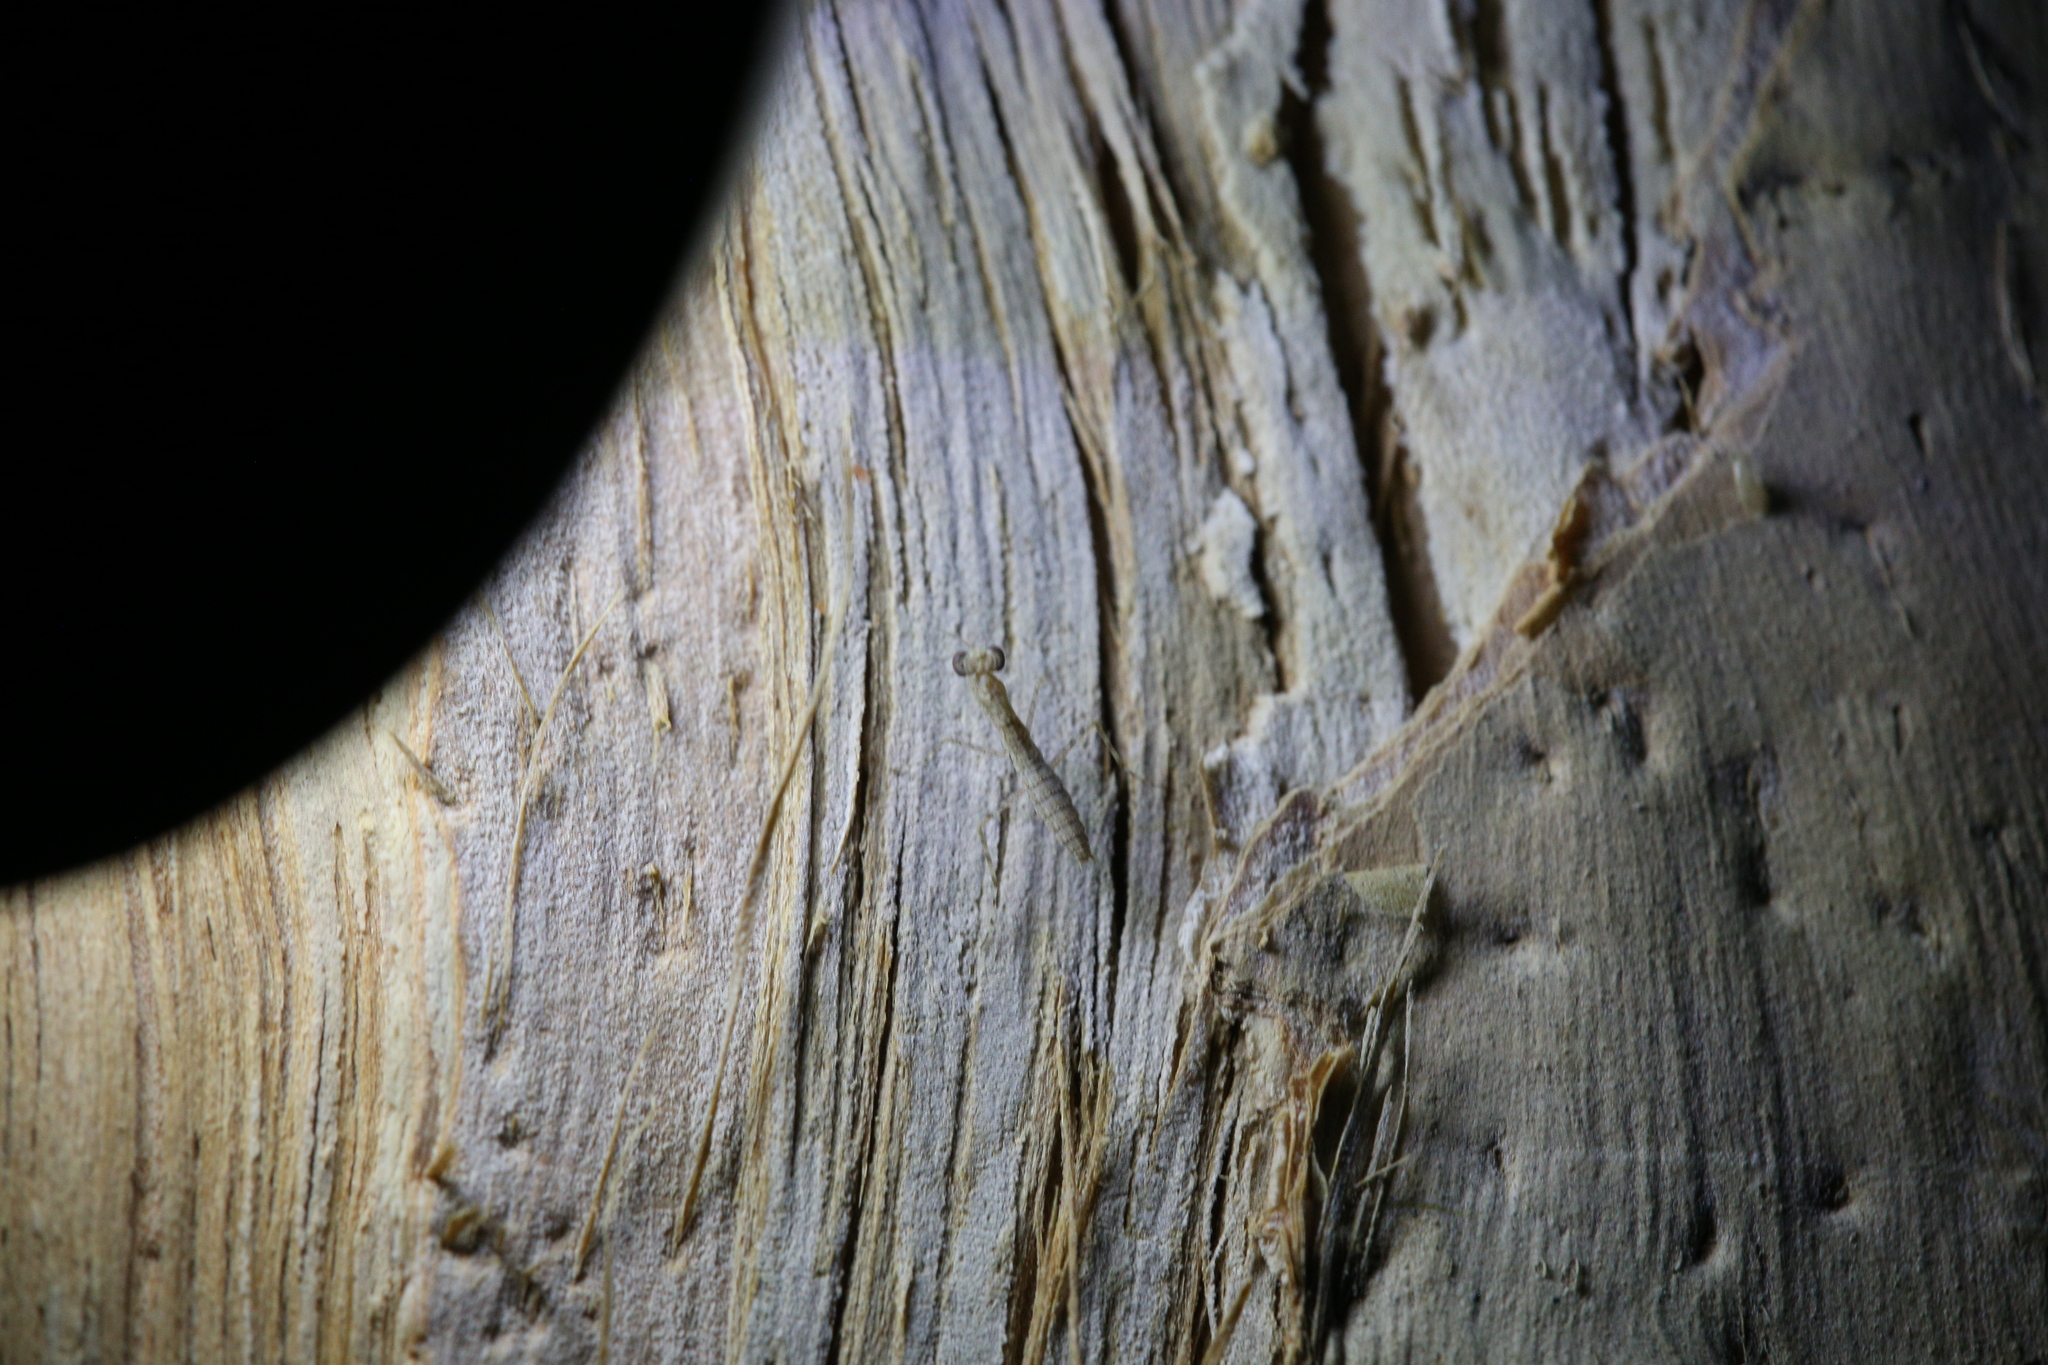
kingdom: Animalia
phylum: Arthropoda
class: Insecta
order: Mantodea
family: Nanomantidae
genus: Ima
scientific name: Ima fusca
